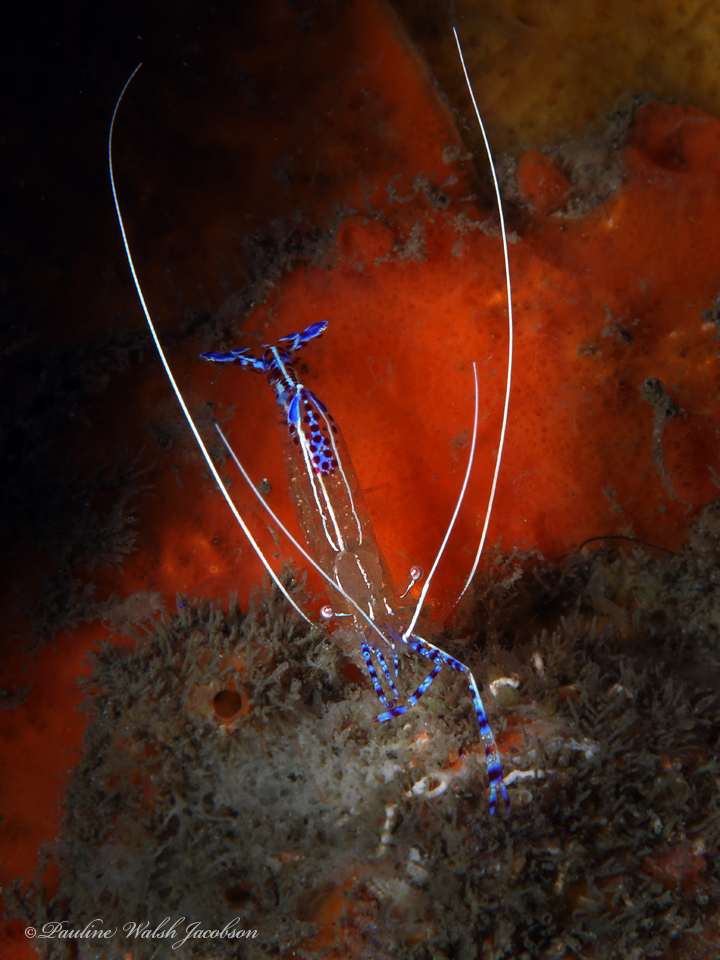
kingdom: Animalia
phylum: Arthropoda
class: Malacostraca
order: Decapoda
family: Palaemonidae
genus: Ancylomenes
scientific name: Ancylomenes pedersoni
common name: Pederson's cleaning shrimp
